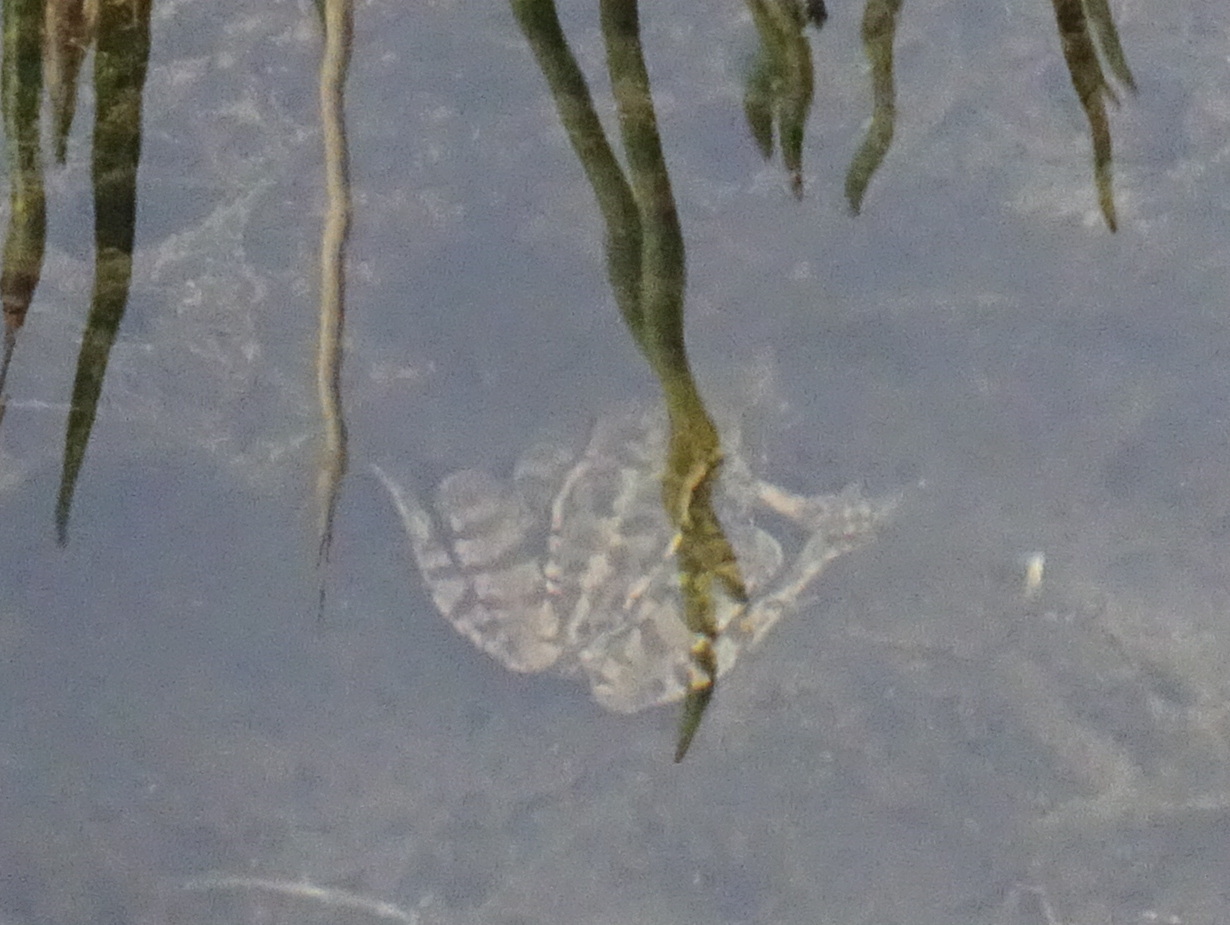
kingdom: Animalia
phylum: Chordata
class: Amphibia
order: Anura
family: Ranidae
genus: Rana
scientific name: Rana temporaria
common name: Common frog
